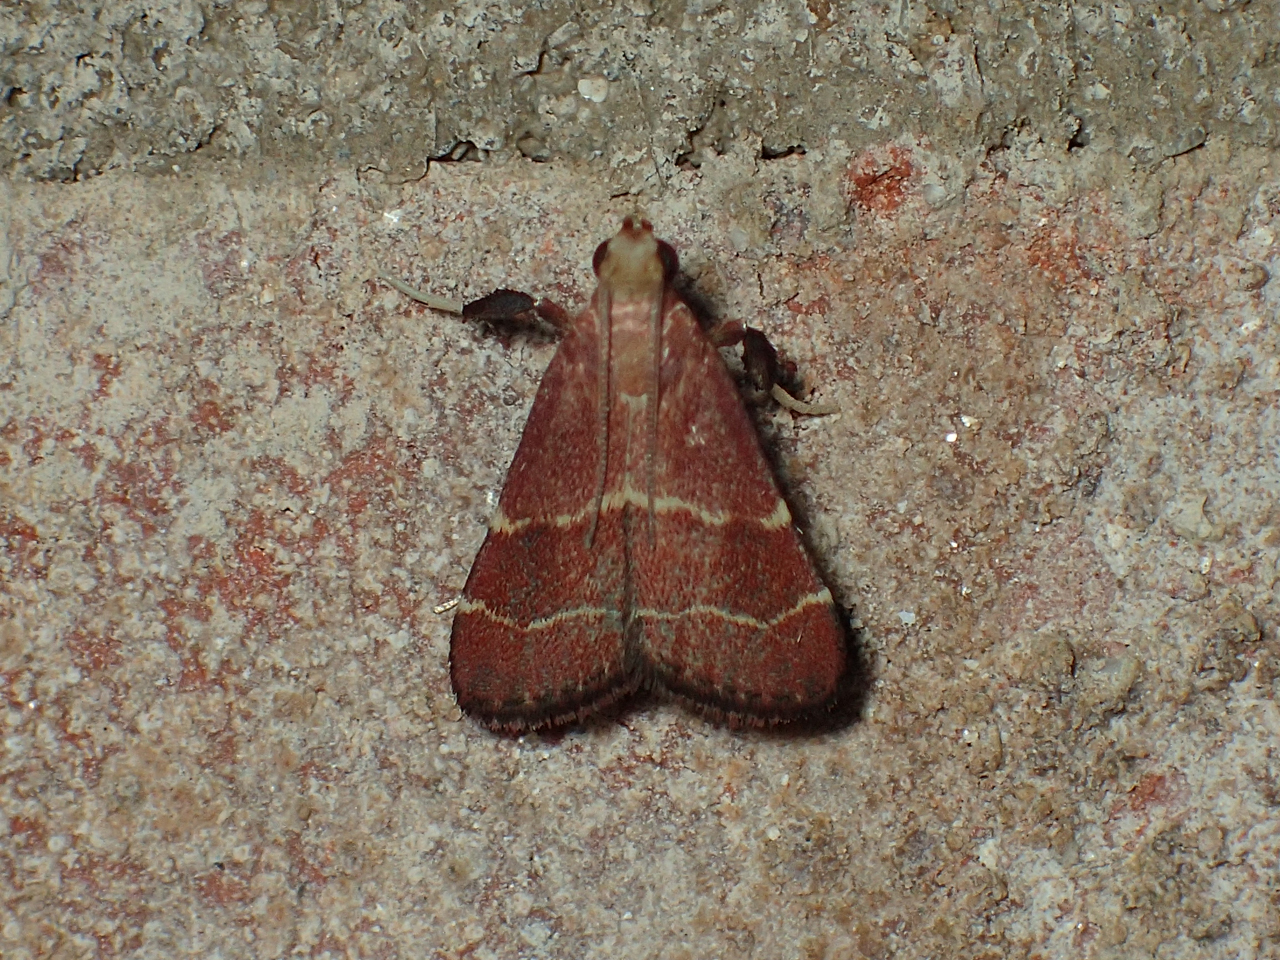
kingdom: Animalia
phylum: Arthropoda
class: Insecta
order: Lepidoptera
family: Pyralidae
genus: Arta
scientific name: Arta statalis
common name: Posturing arta moth
